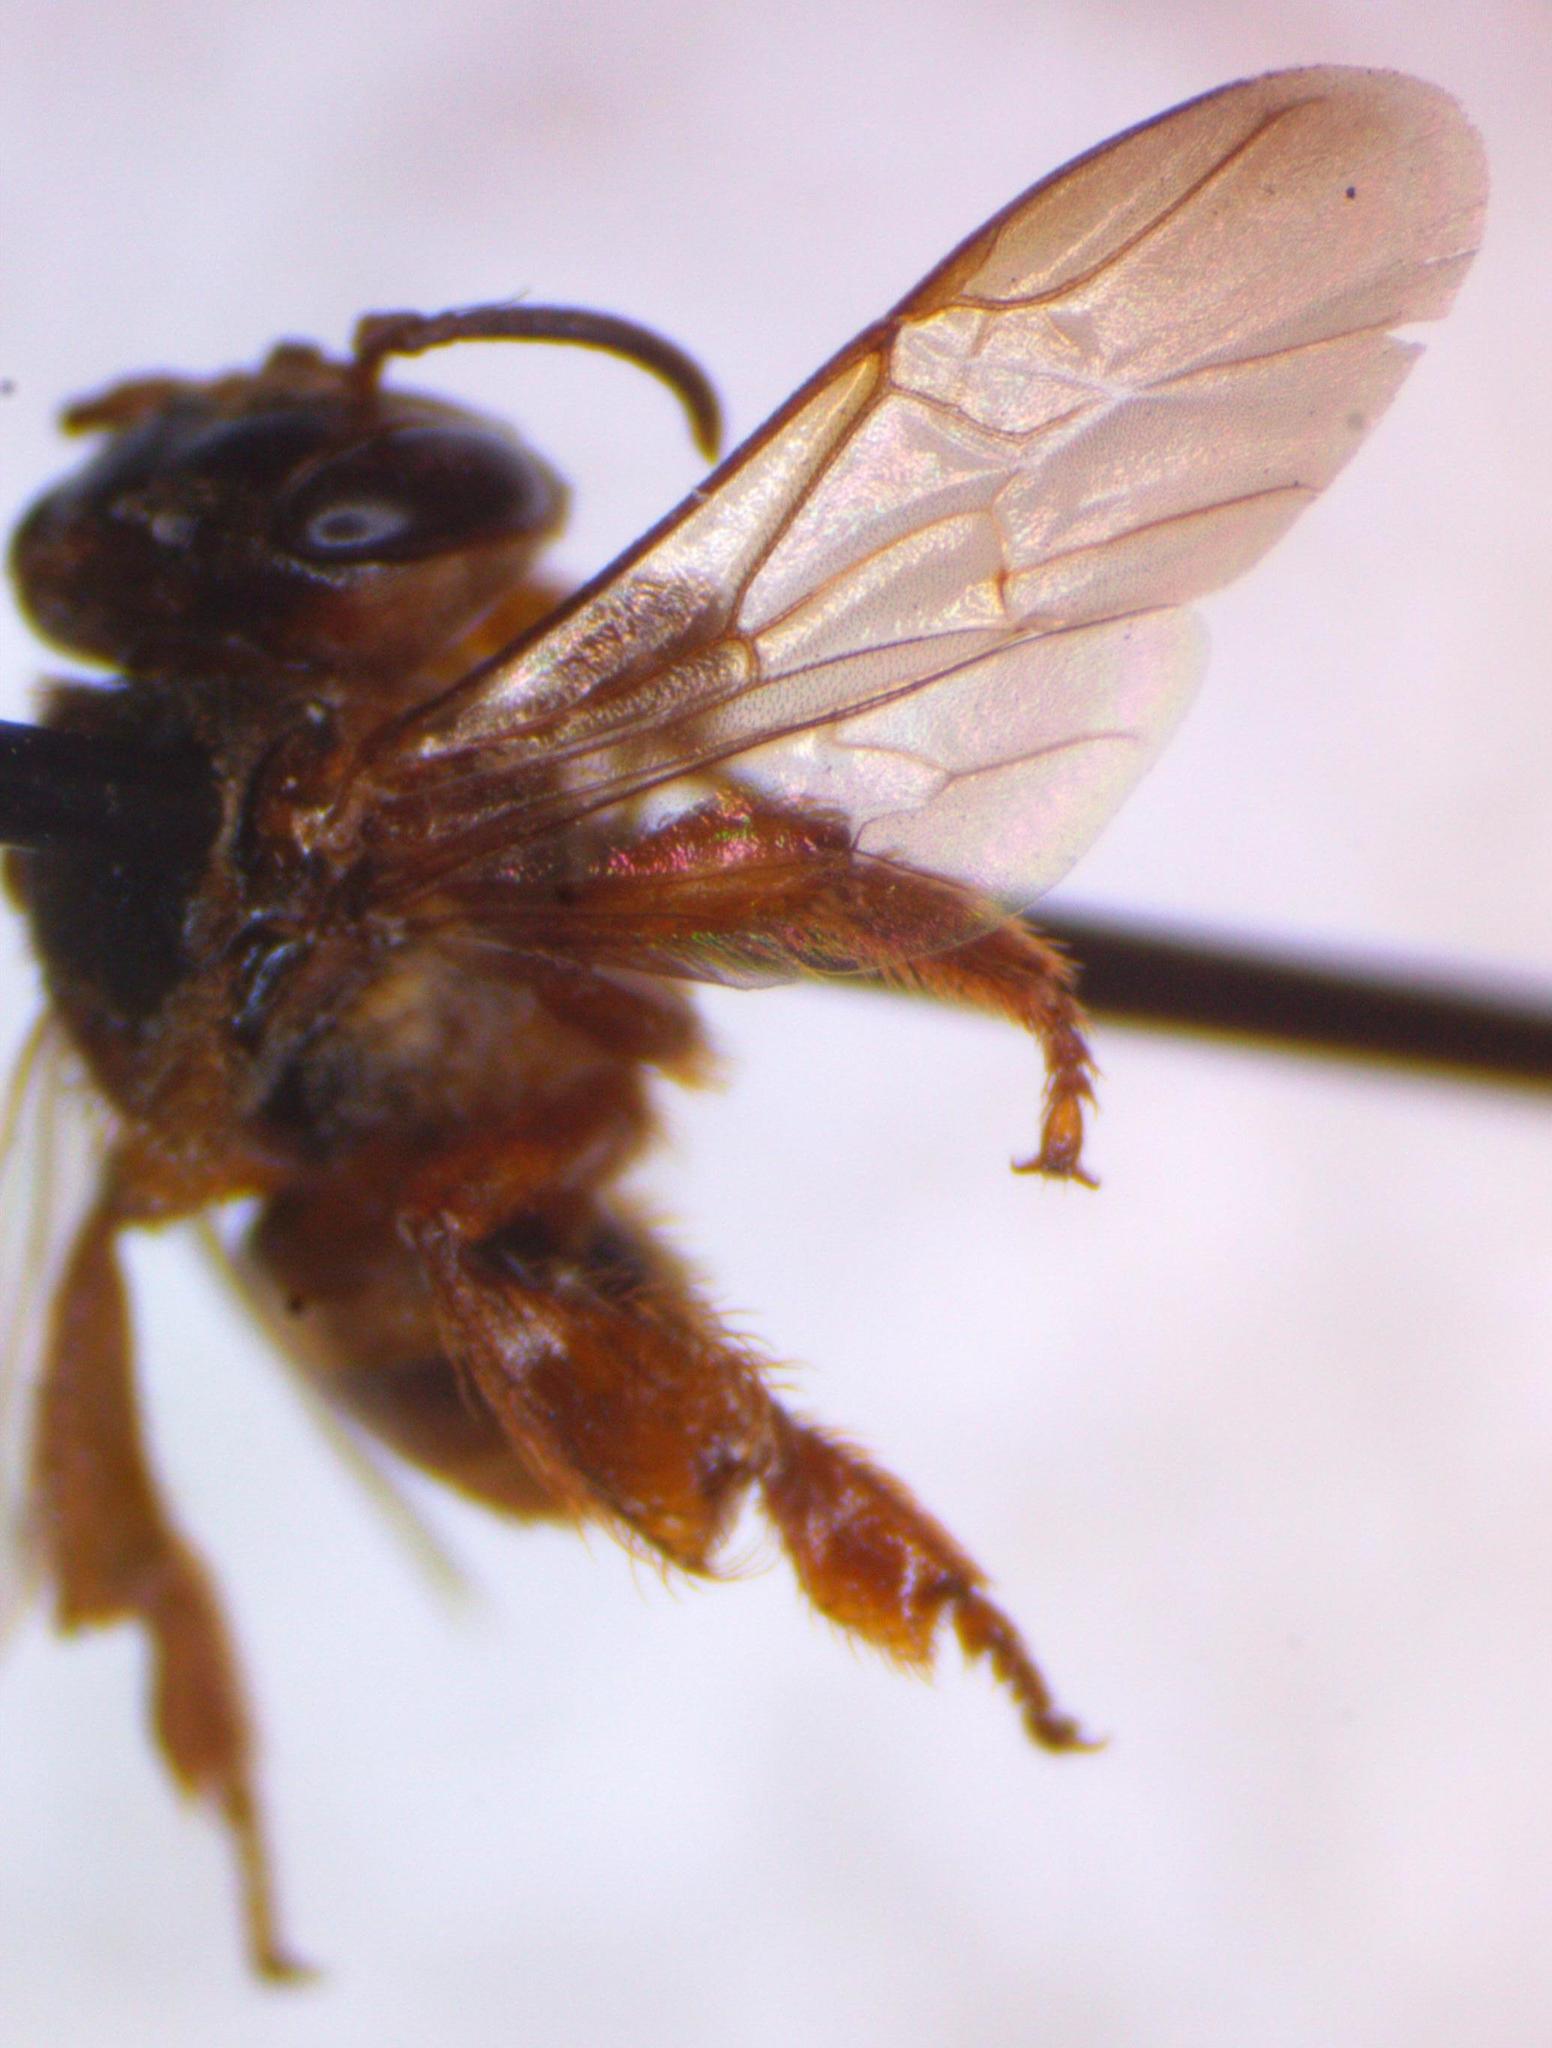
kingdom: Animalia
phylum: Arthropoda
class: Insecta
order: Hymenoptera
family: Apidae
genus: Scaptotrigona
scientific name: Scaptotrigona pectoralis
